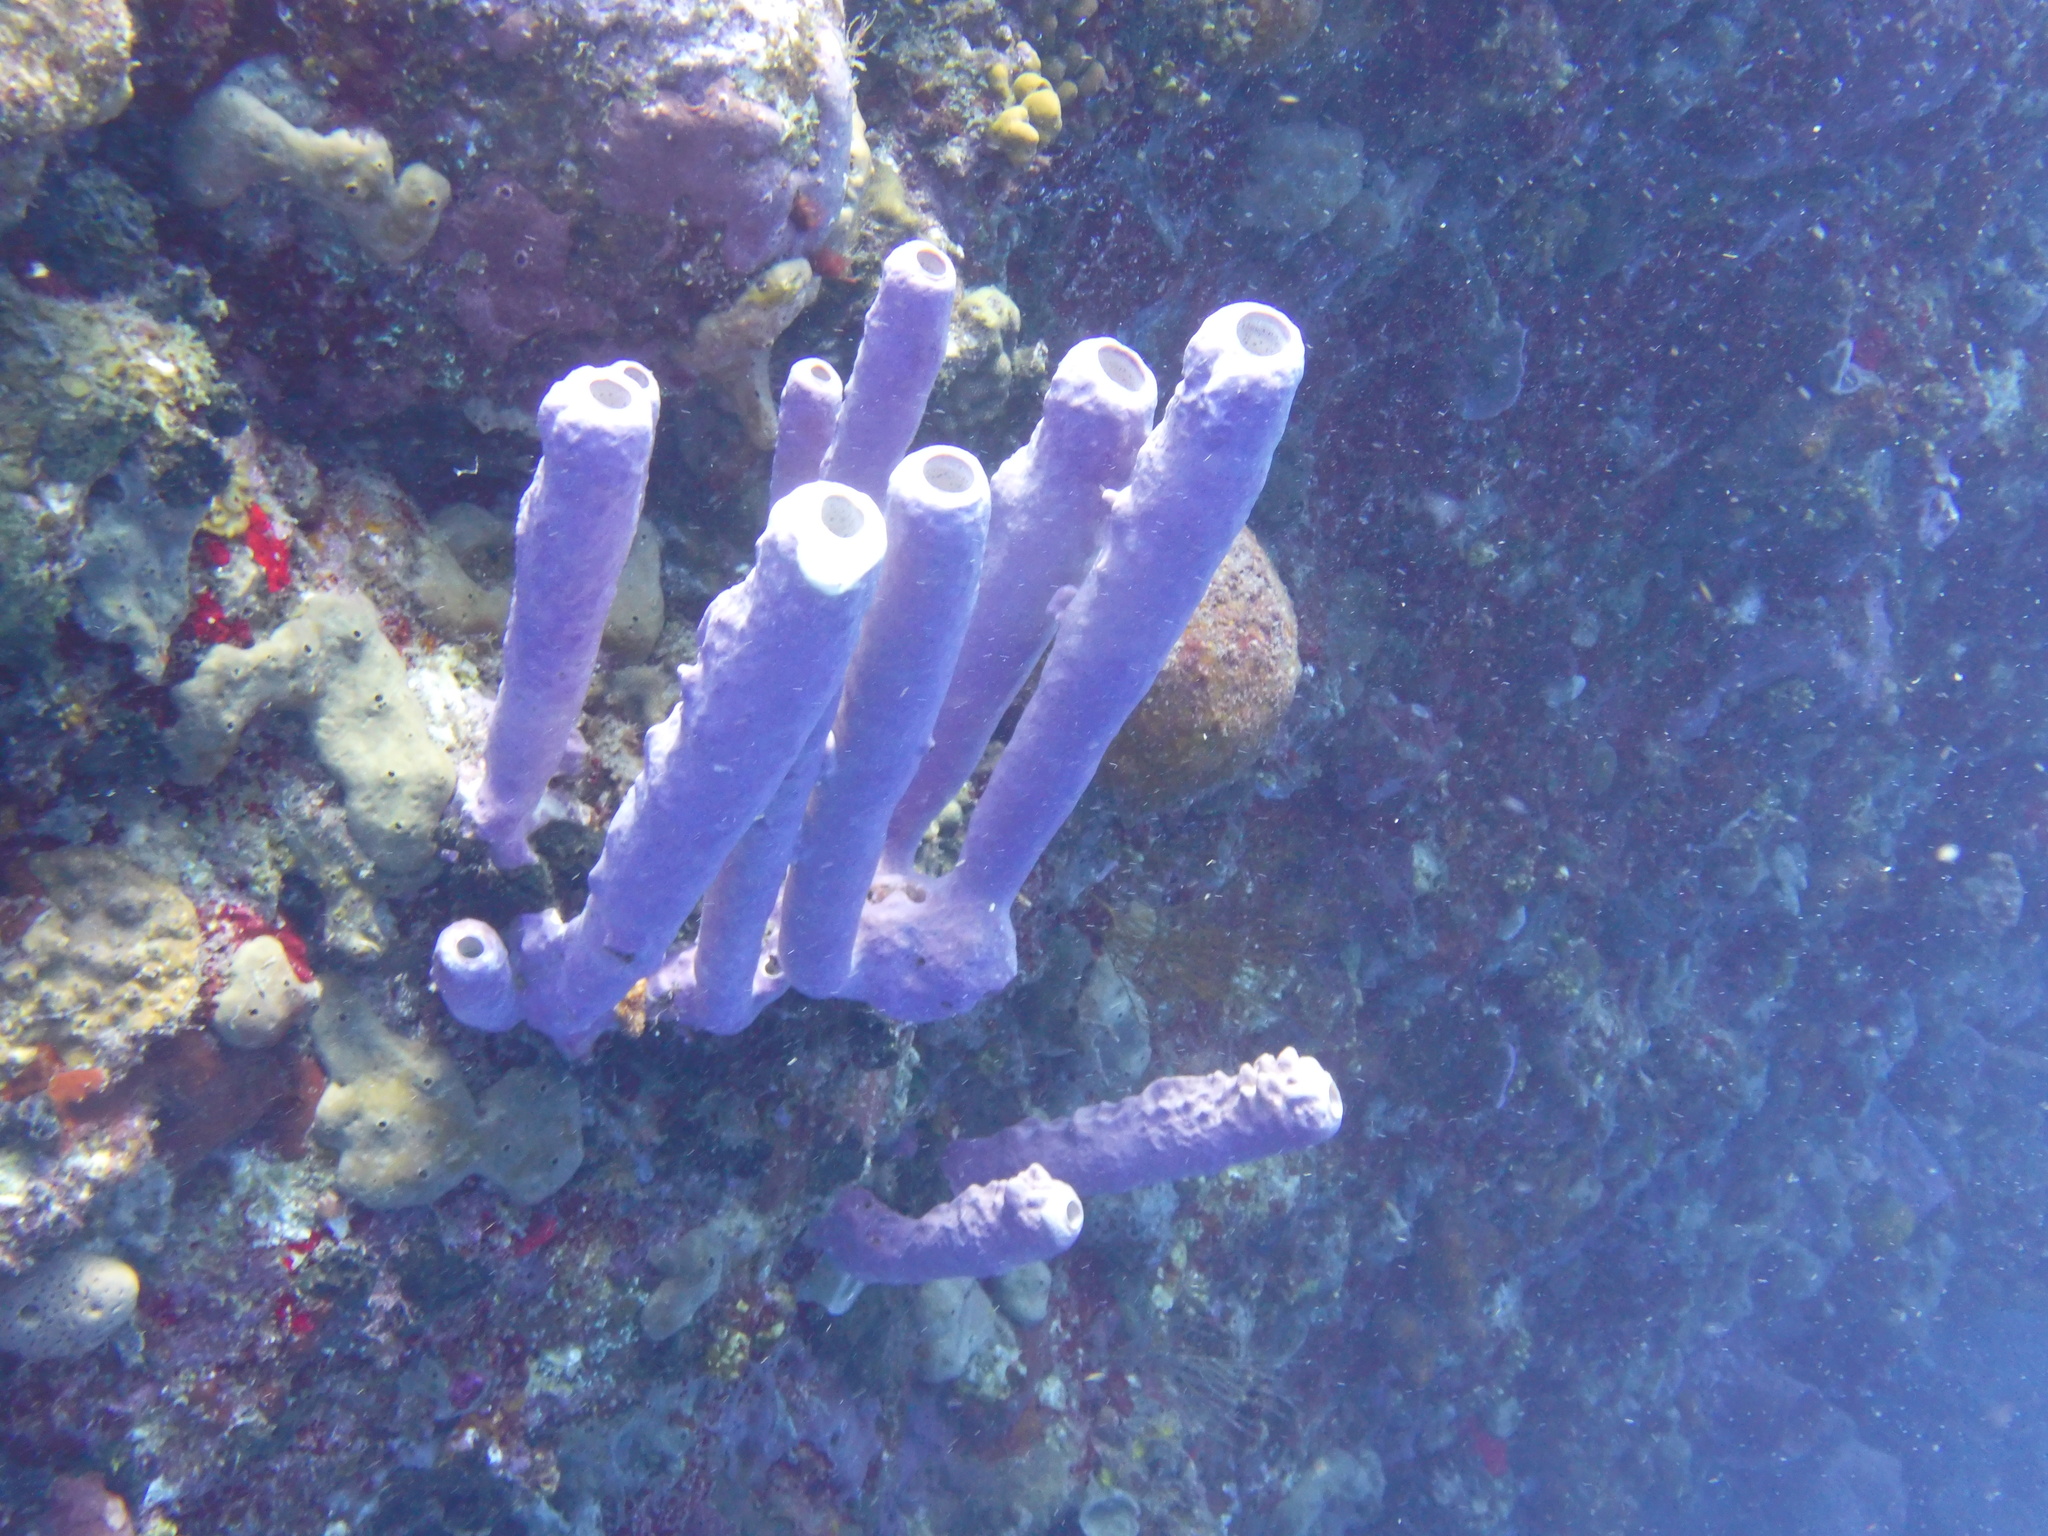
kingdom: Animalia
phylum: Porifera
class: Demospongiae
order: Verongiida
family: Aplysinidae
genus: Aplysina
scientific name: Aplysina archeri
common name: Stove-pipe sponge
